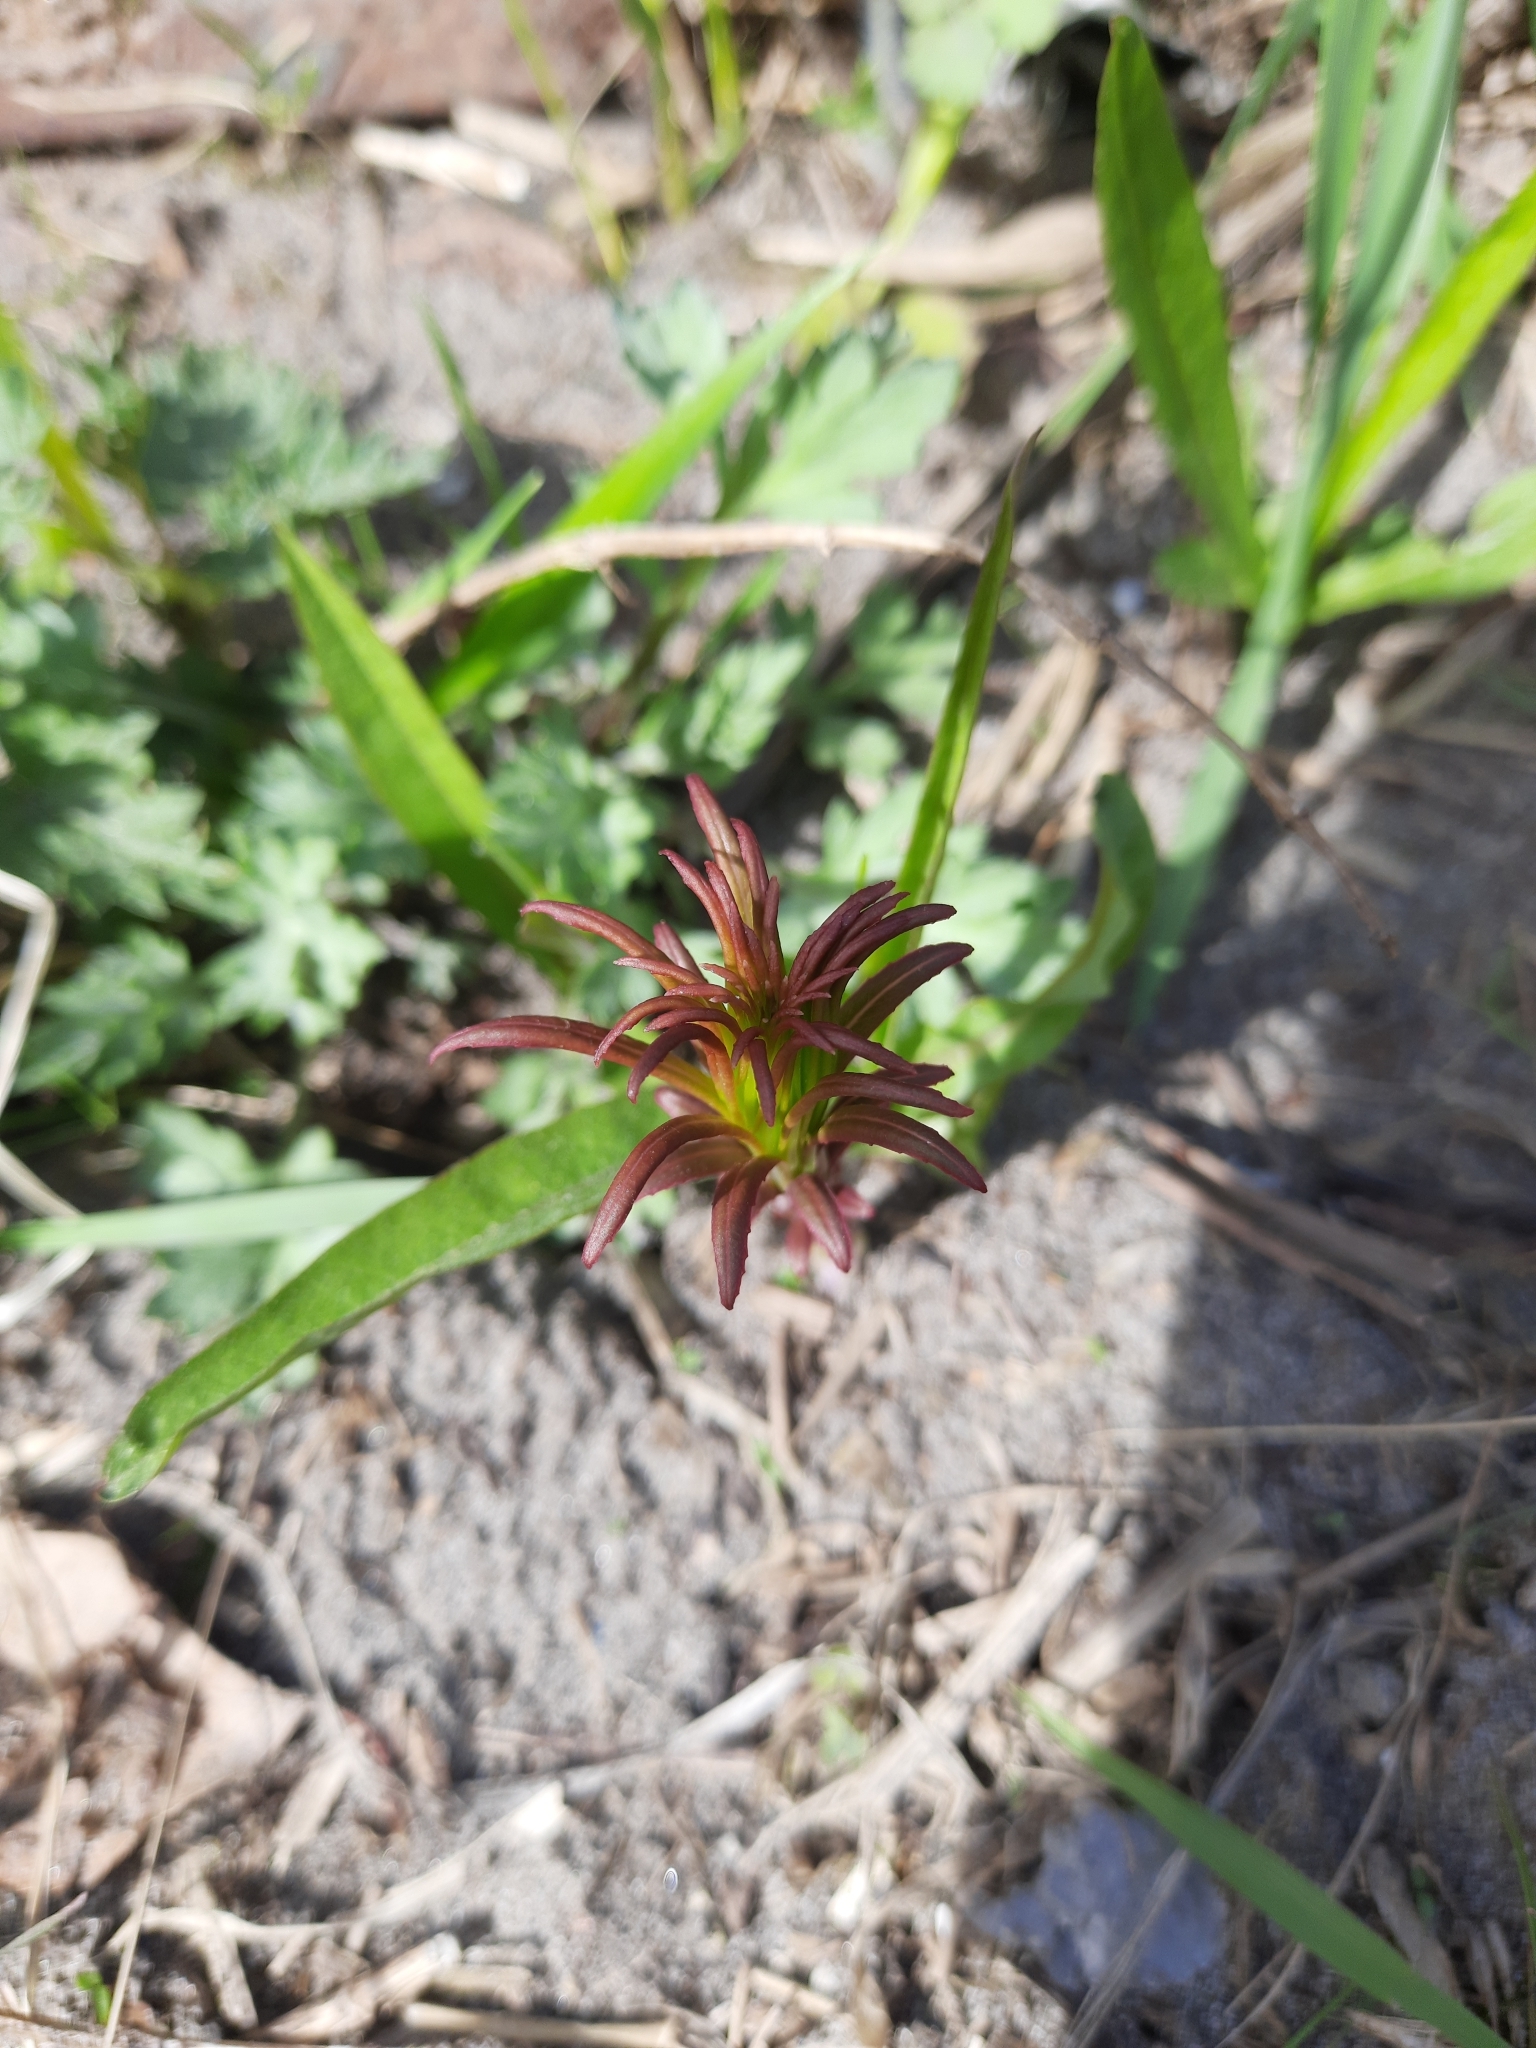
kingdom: Plantae
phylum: Tracheophyta
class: Magnoliopsida
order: Myrtales
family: Onagraceae
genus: Chamaenerion
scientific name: Chamaenerion angustifolium
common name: Fireweed
